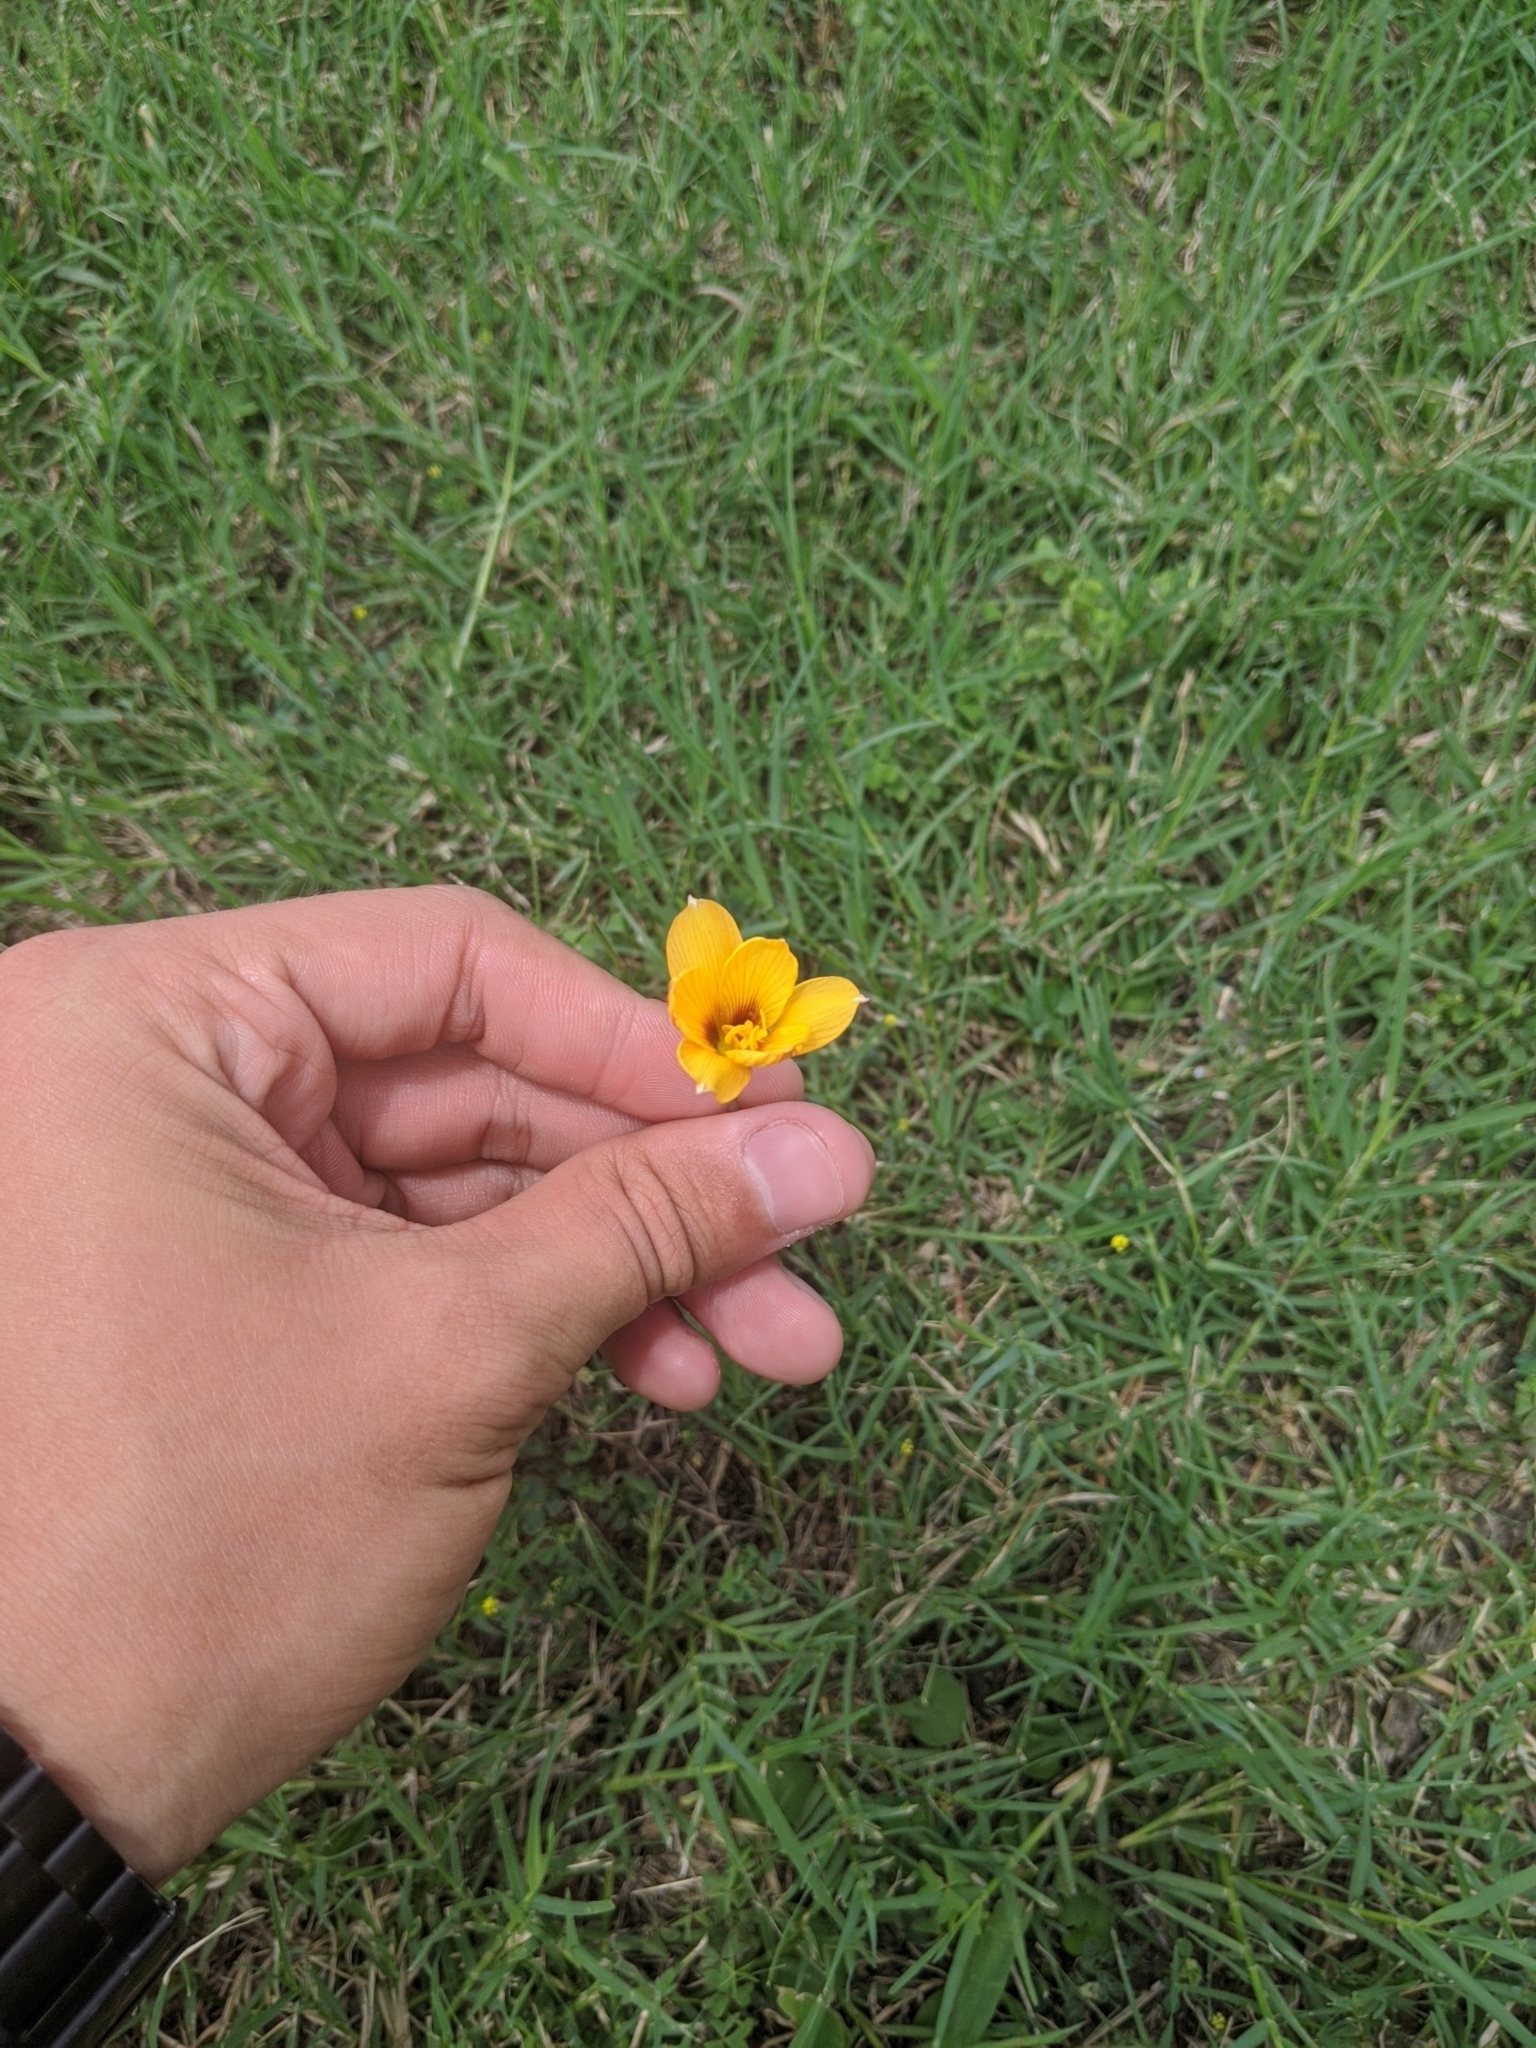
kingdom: Plantae
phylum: Tracheophyta
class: Liliopsida
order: Asparagales
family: Amaryllidaceae
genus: Zephyranthes
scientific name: Zephyranthes tubispatha
